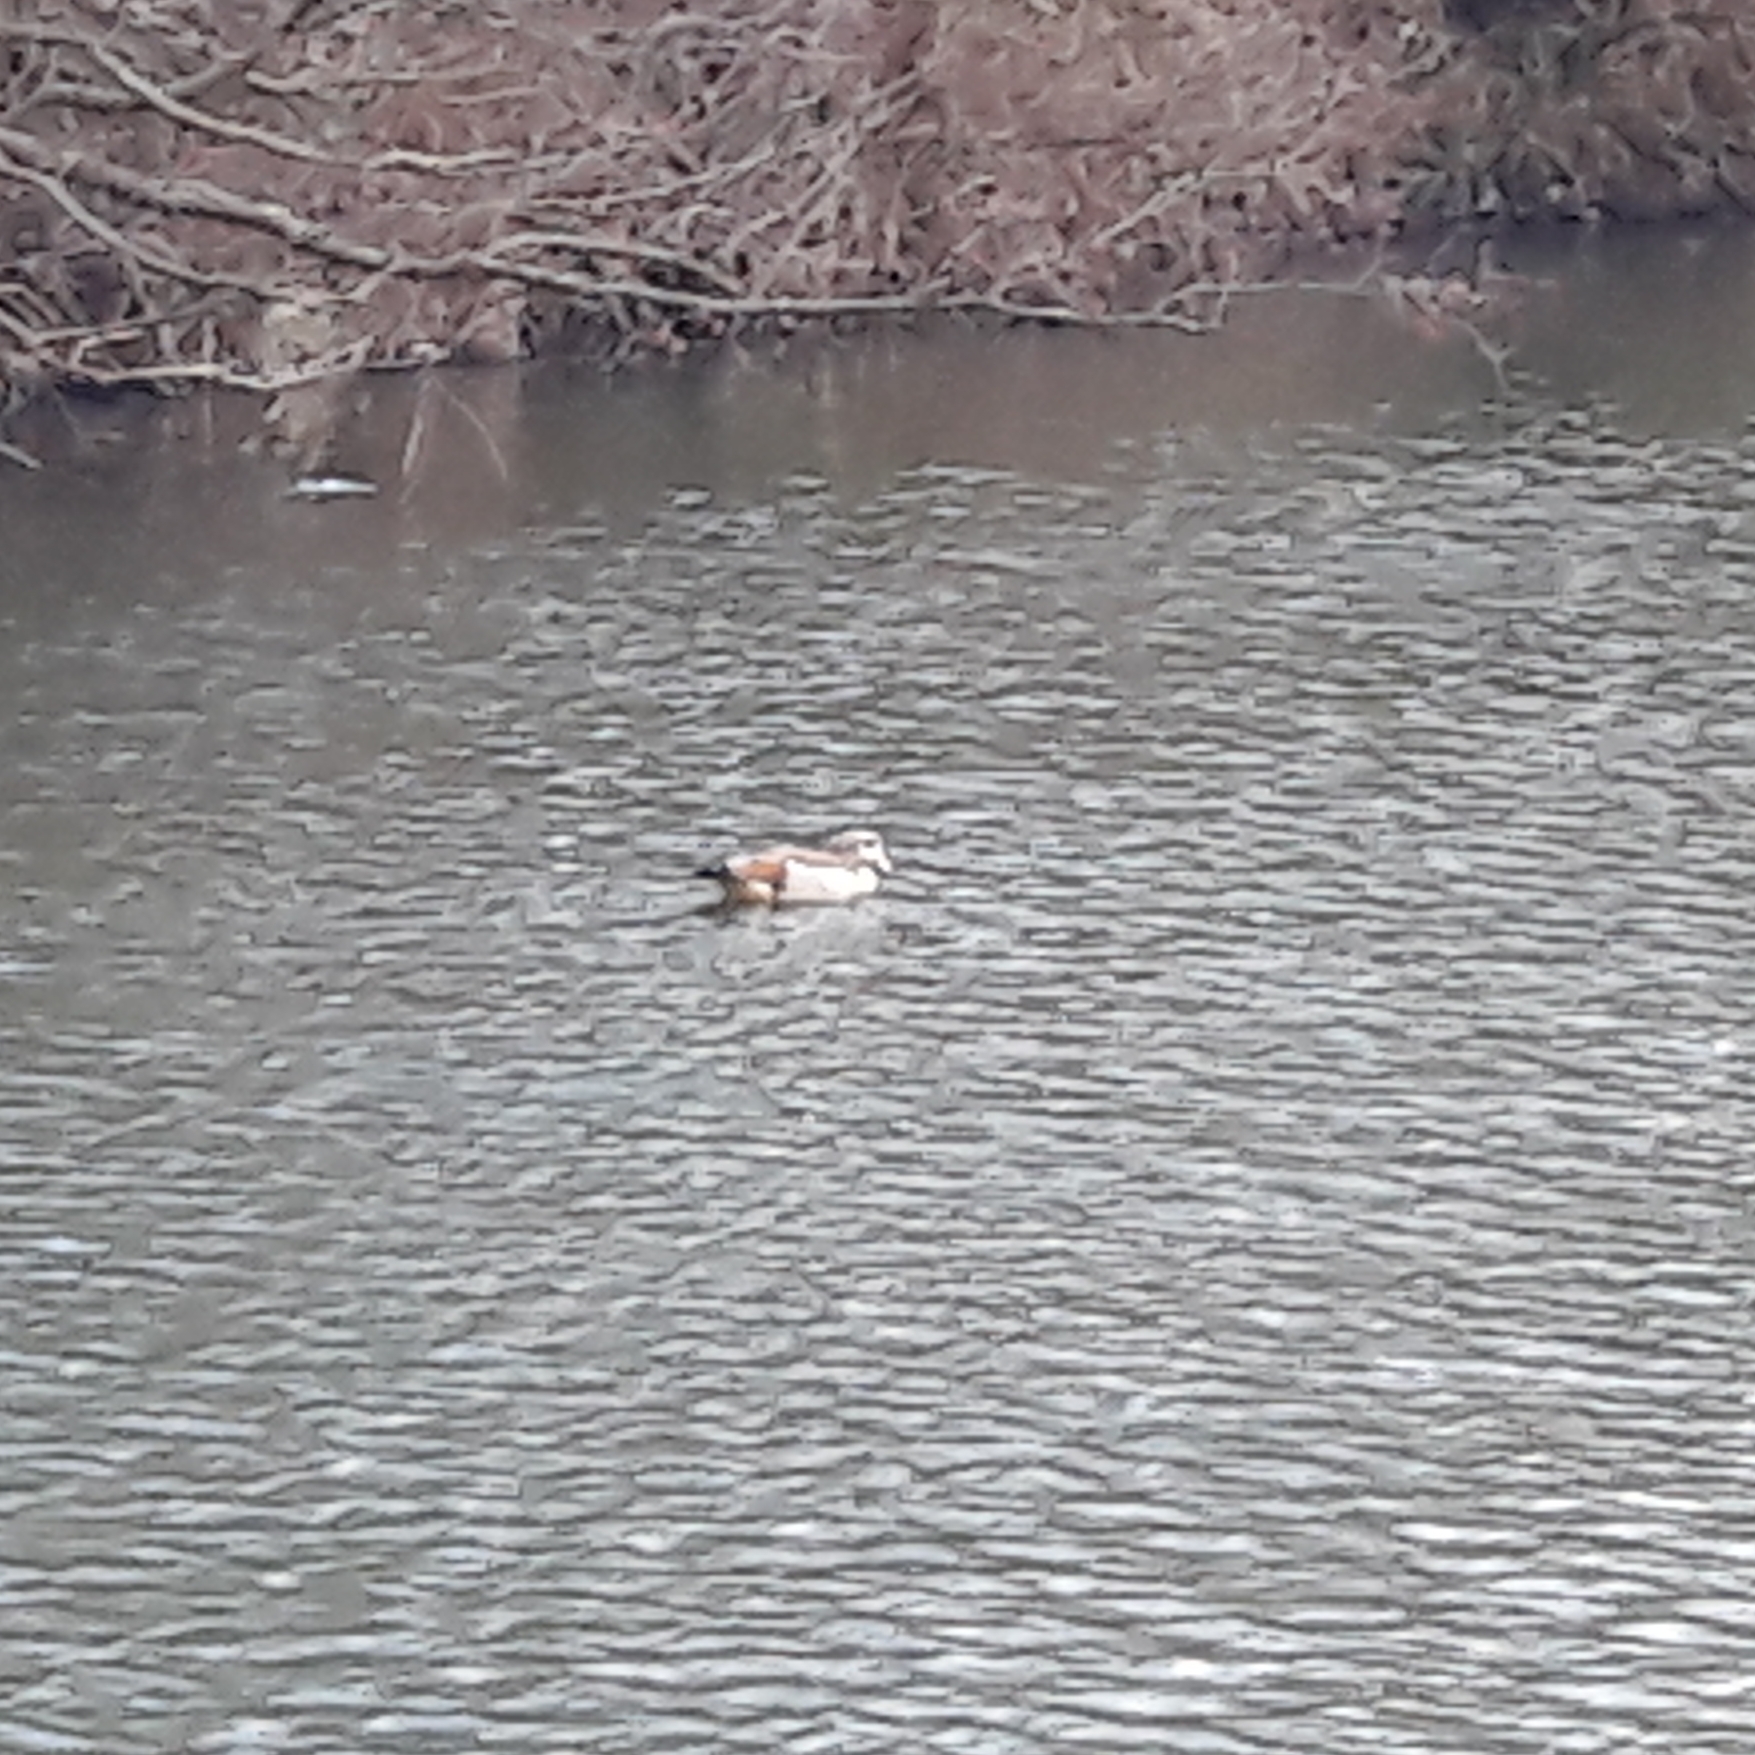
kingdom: Animalia
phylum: Chordata
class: Aves
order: Anseriformes
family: Anatidae
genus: Alopochen
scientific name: Alopochen aegyptiaca
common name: Egyptian goose
